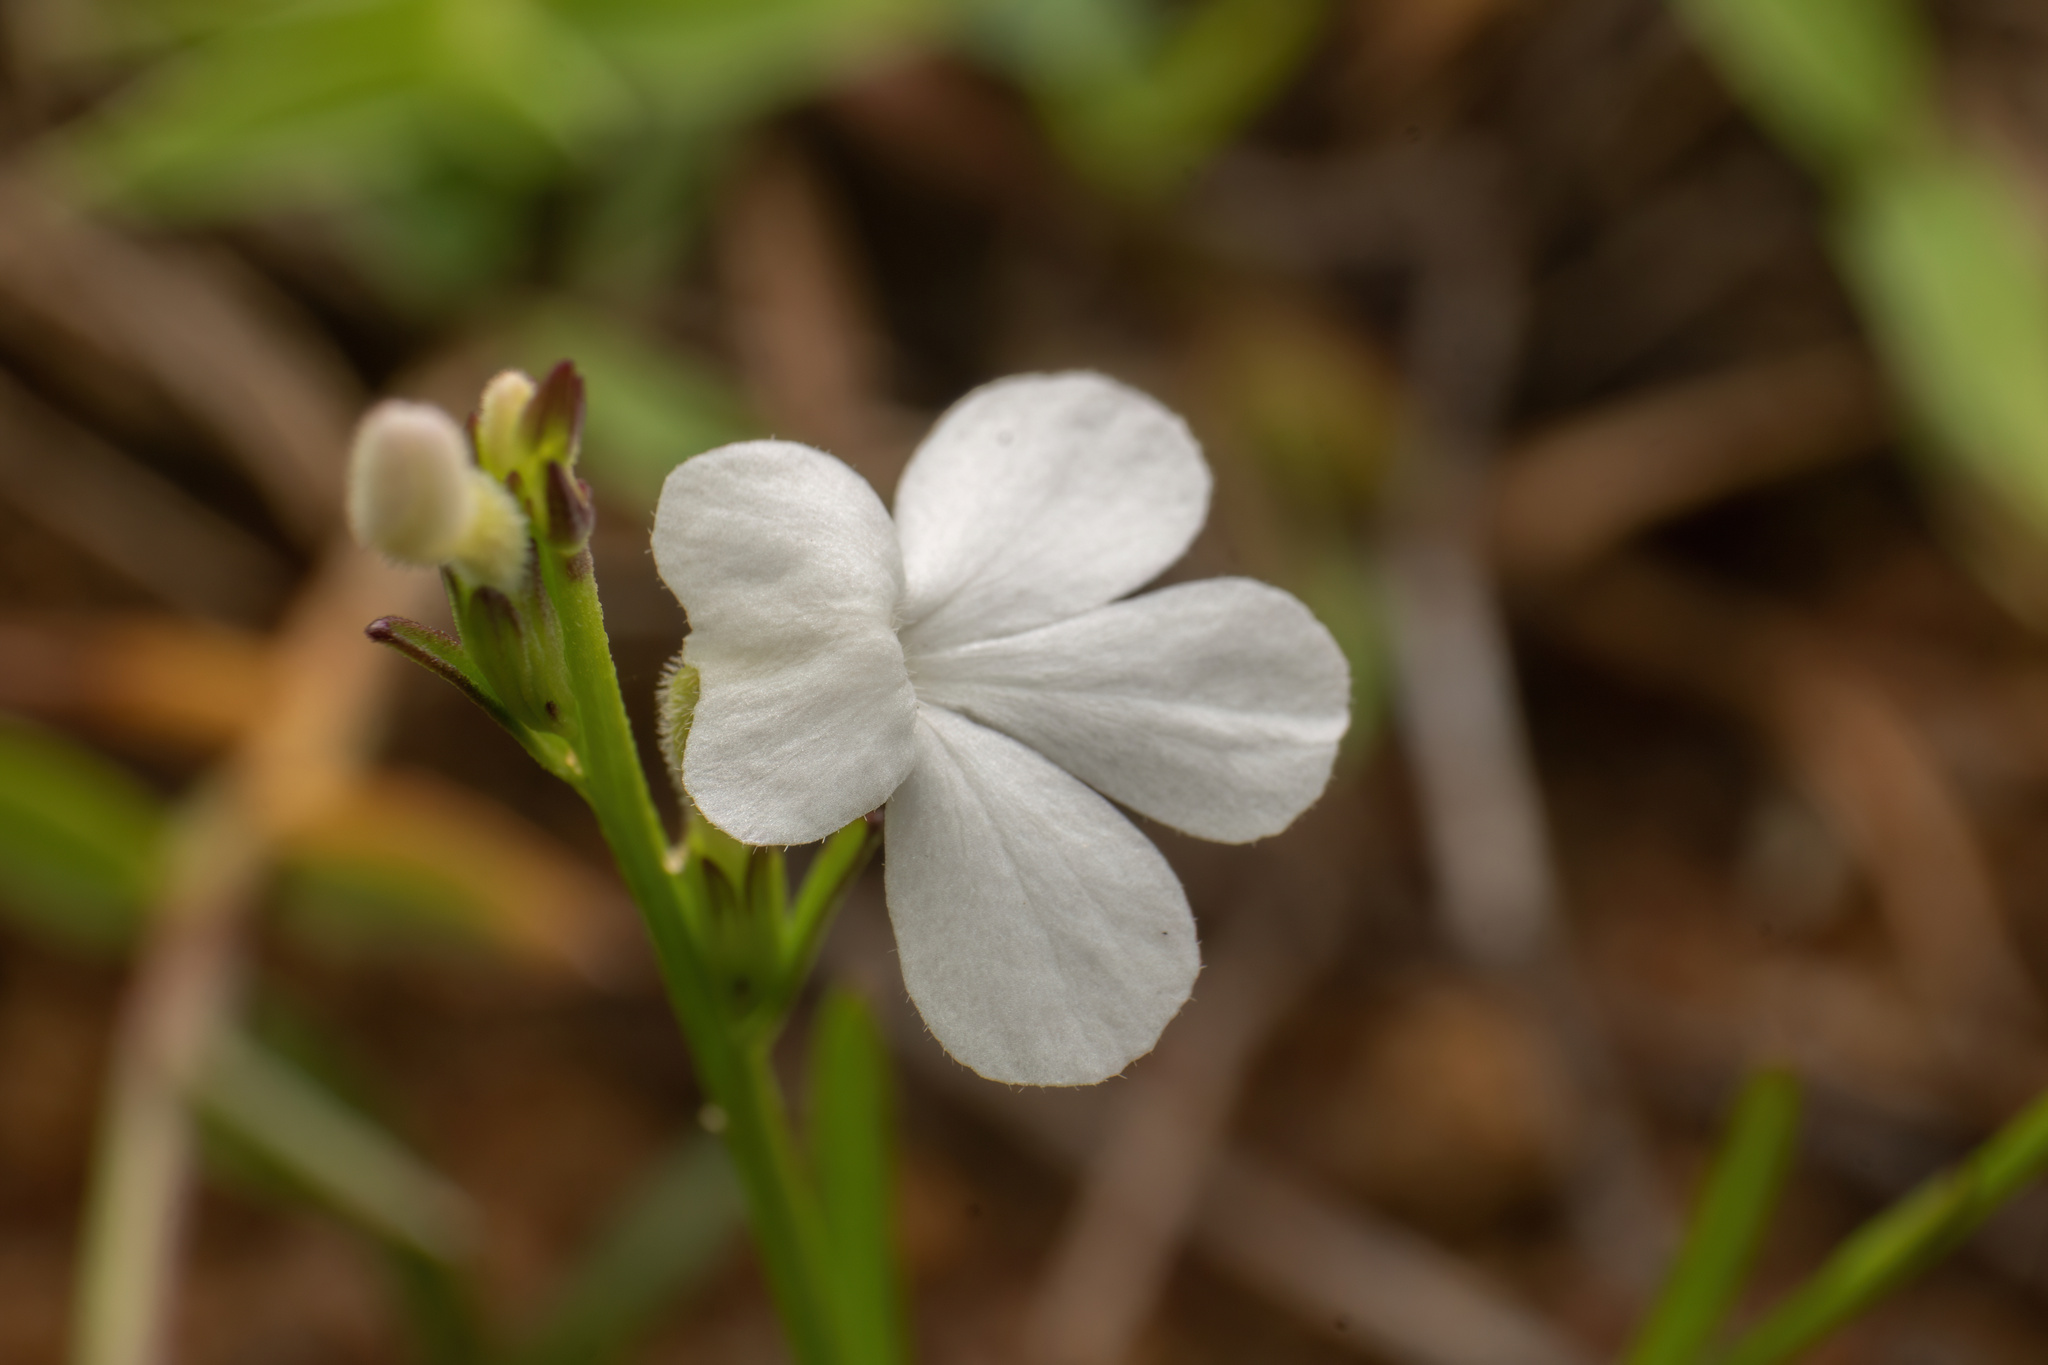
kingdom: Plantae
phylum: Tracheophyta
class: Magnoliopsida
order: Lamiales
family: Orobanchaceae
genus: Striga
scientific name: Striga densiflora
